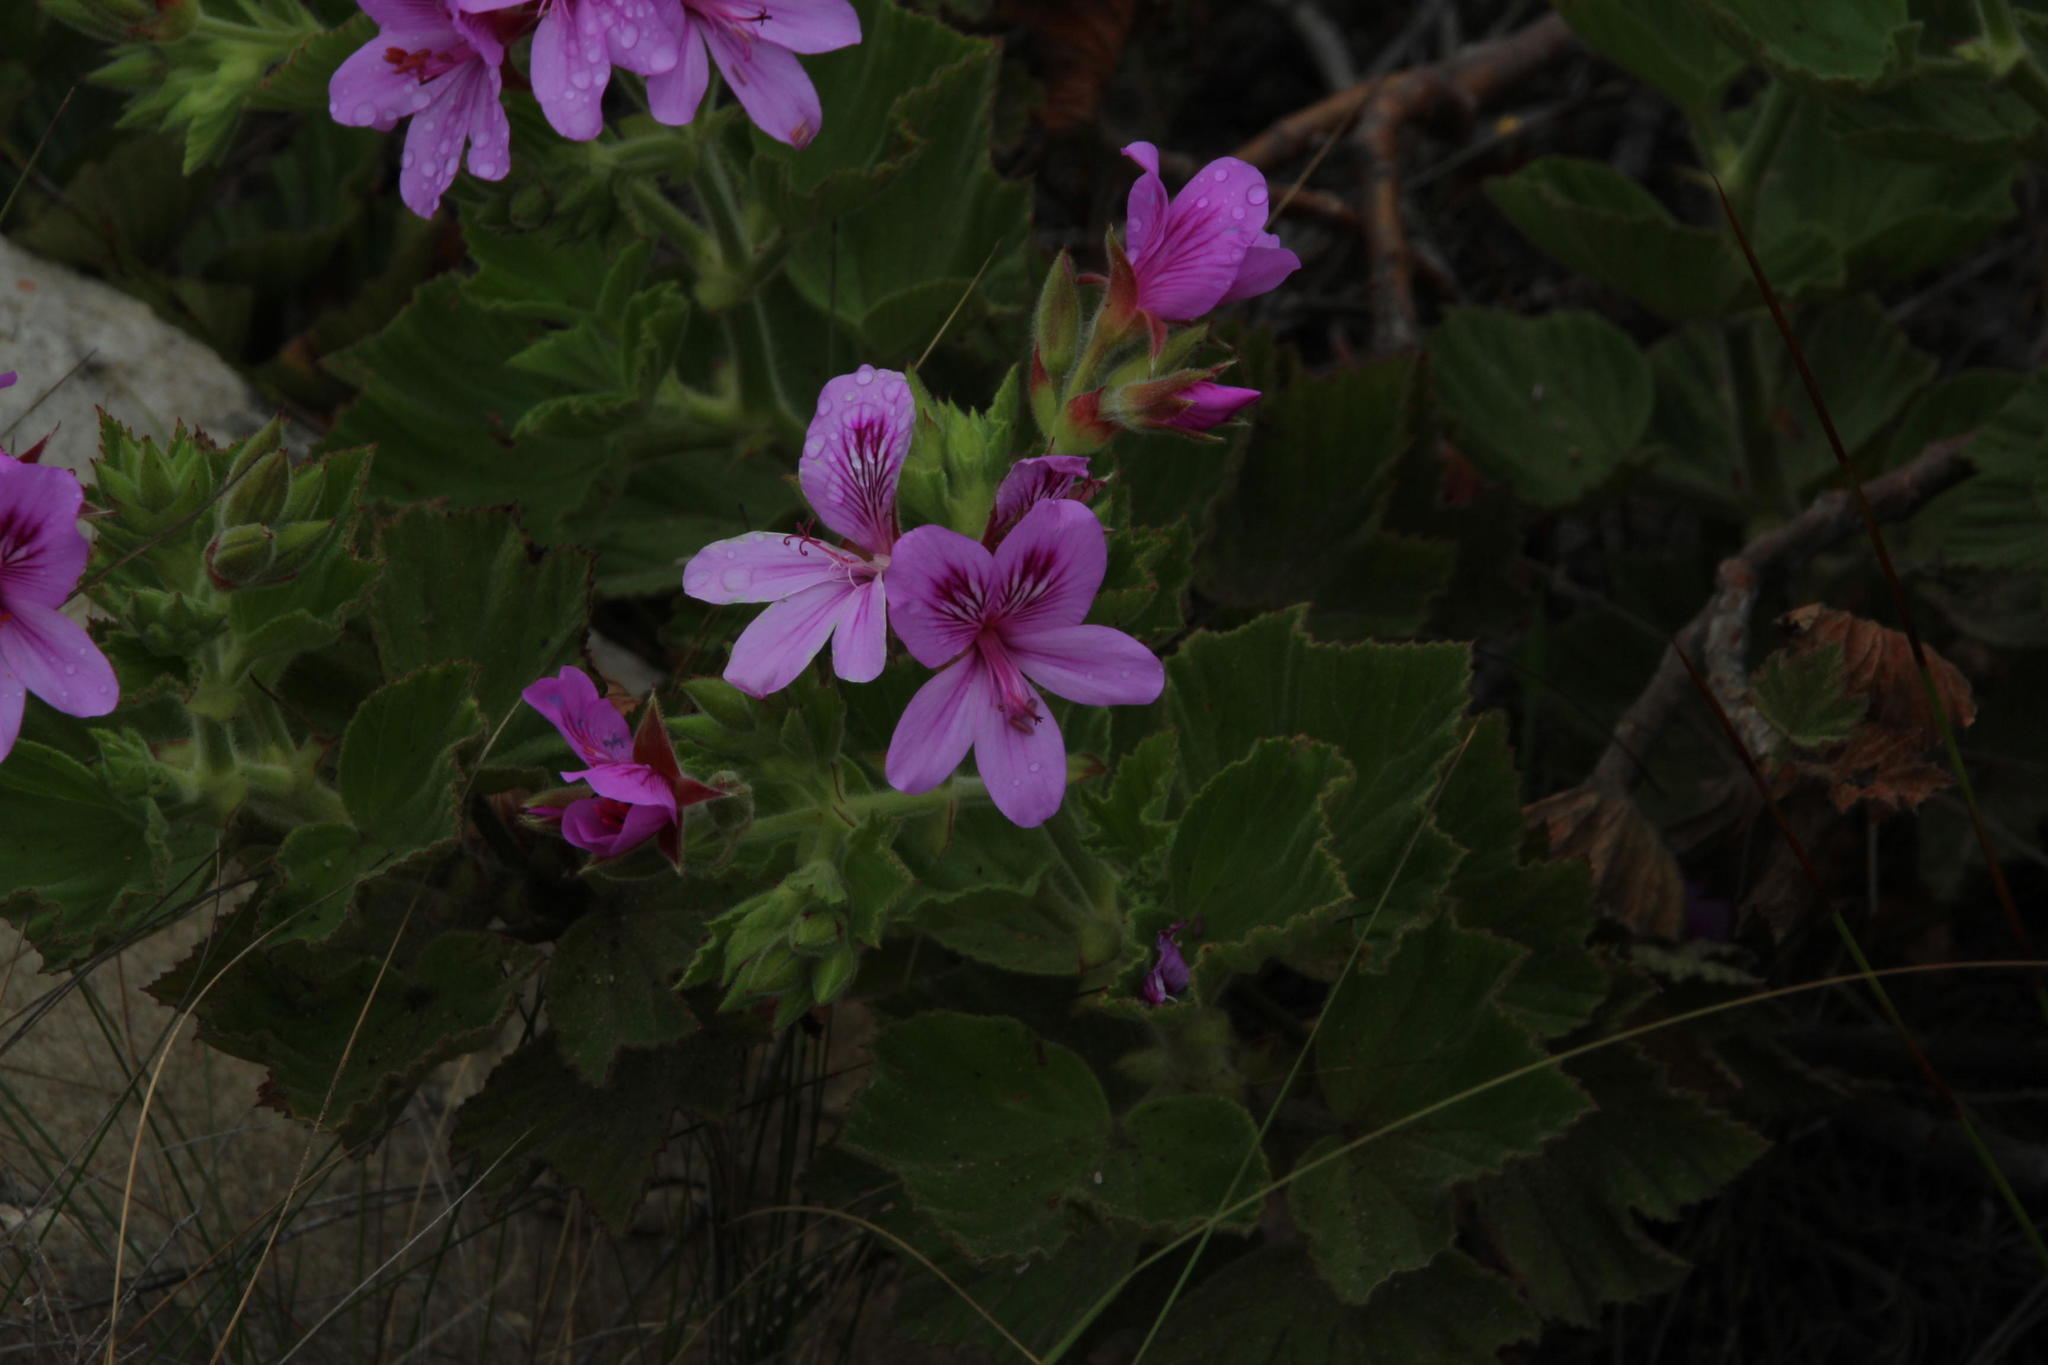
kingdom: Plantae
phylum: Tracheophyta
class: Magnoliopsida
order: Geraniales
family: Geraniaceae
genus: Pelargonium
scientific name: Pelargonium cucullatum
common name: Tree pelargonium
